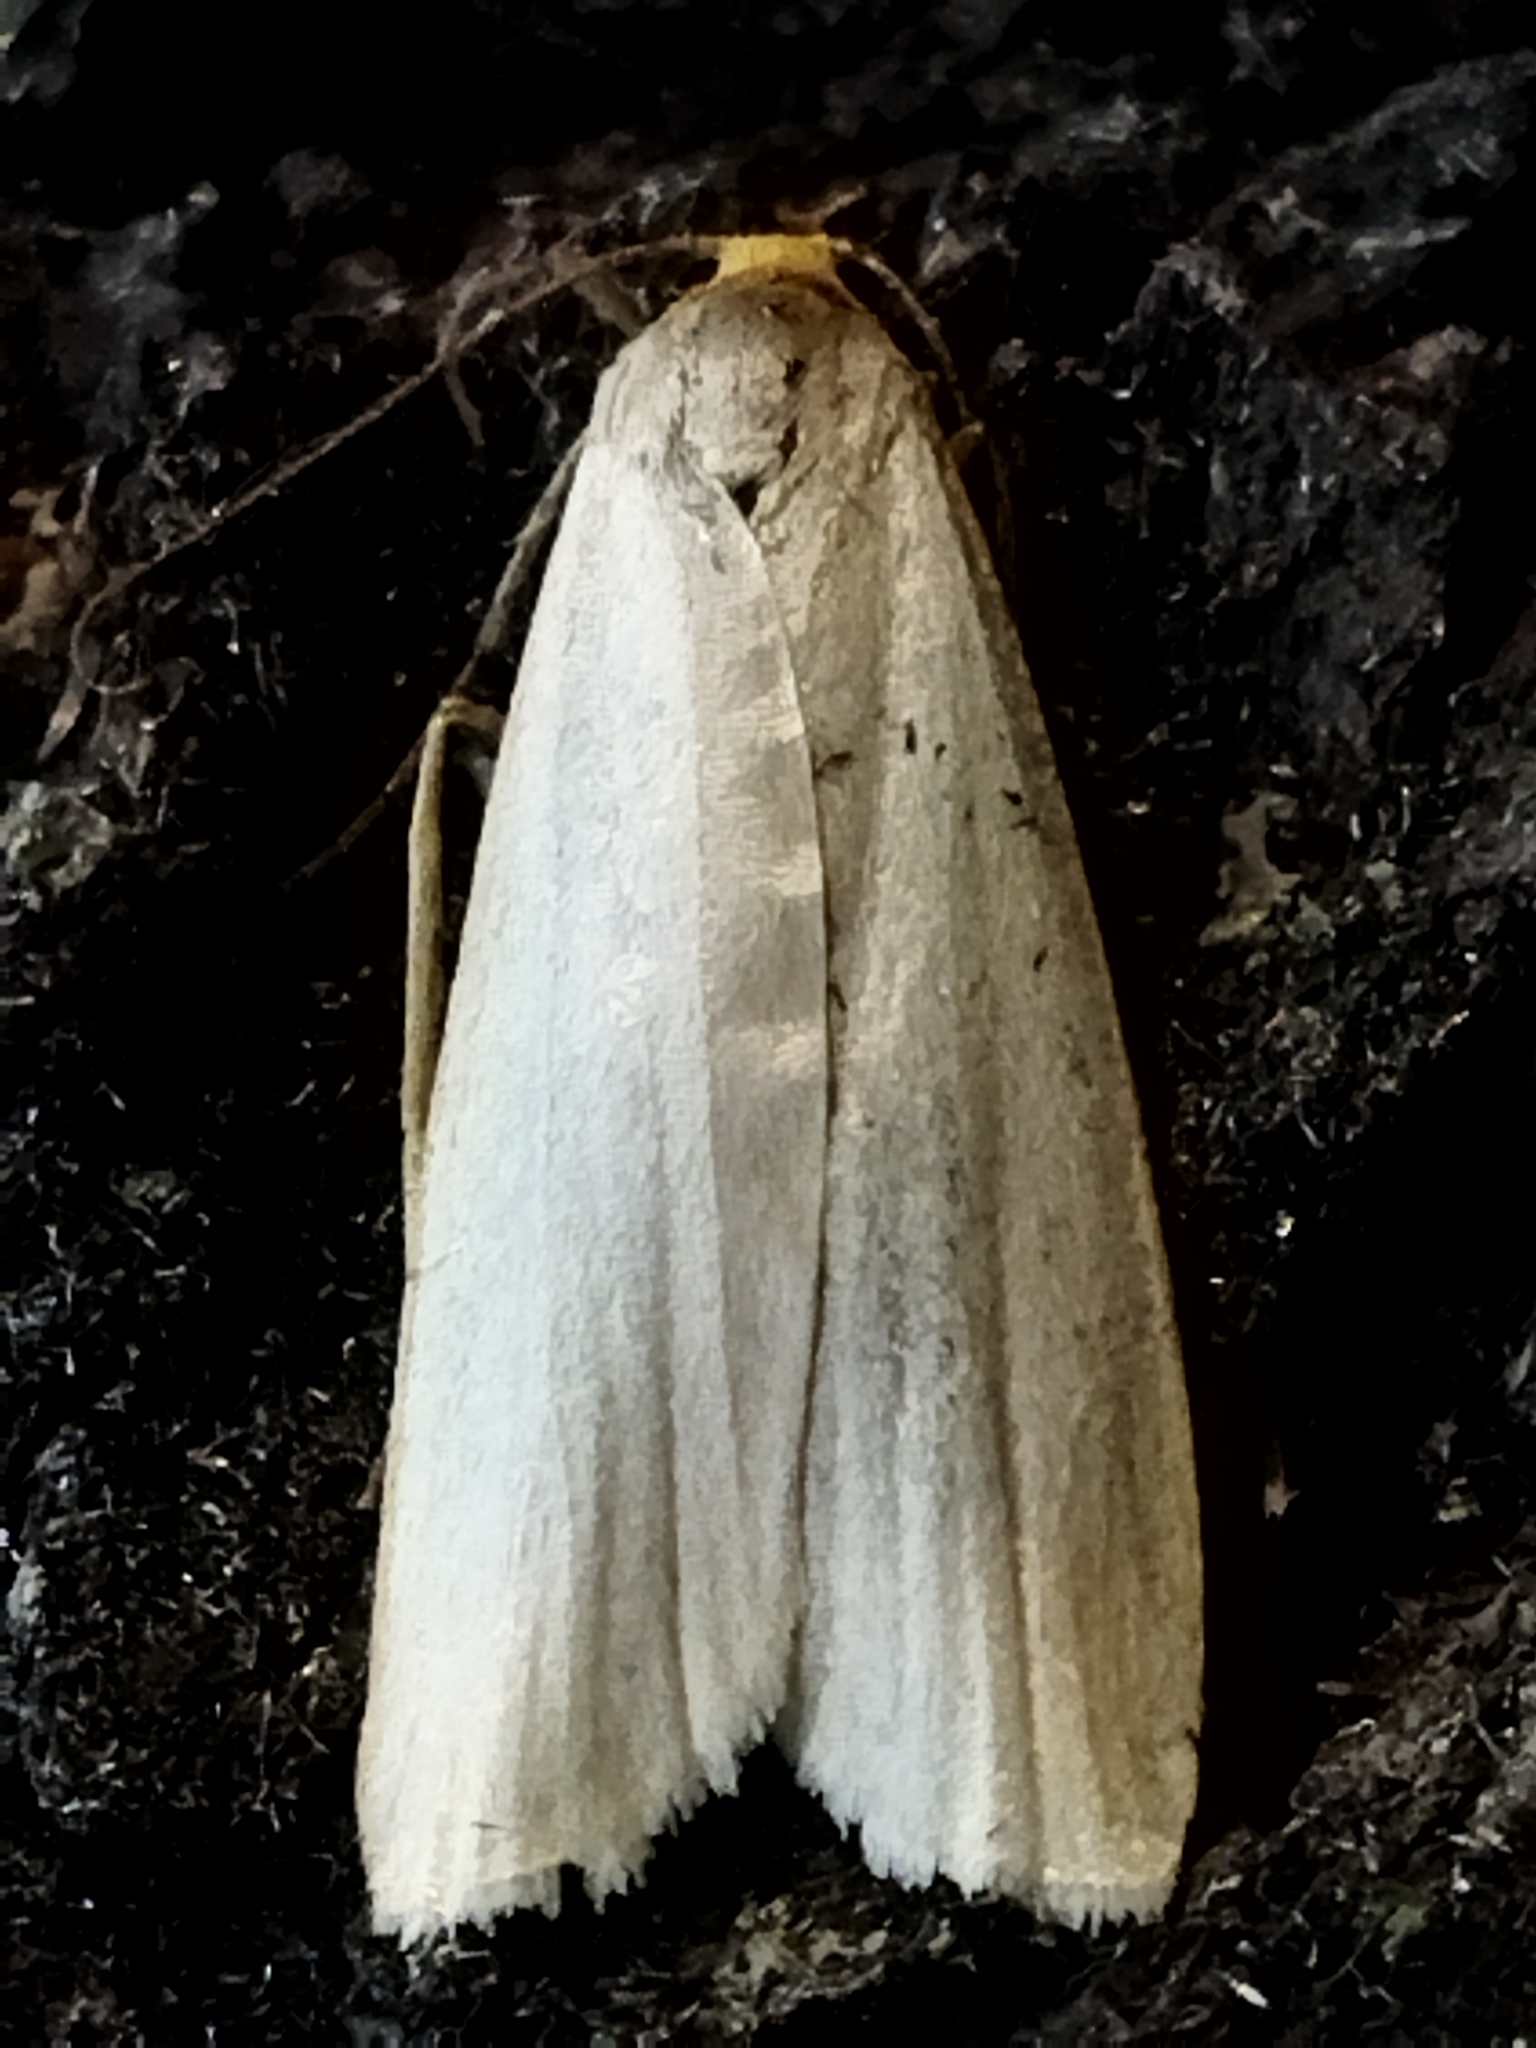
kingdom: Animalia
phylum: Arthropoda
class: Insecta
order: Lepidoptera
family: Erebidae
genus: Eilema
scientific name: Eilema caniola
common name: Hoary footman
